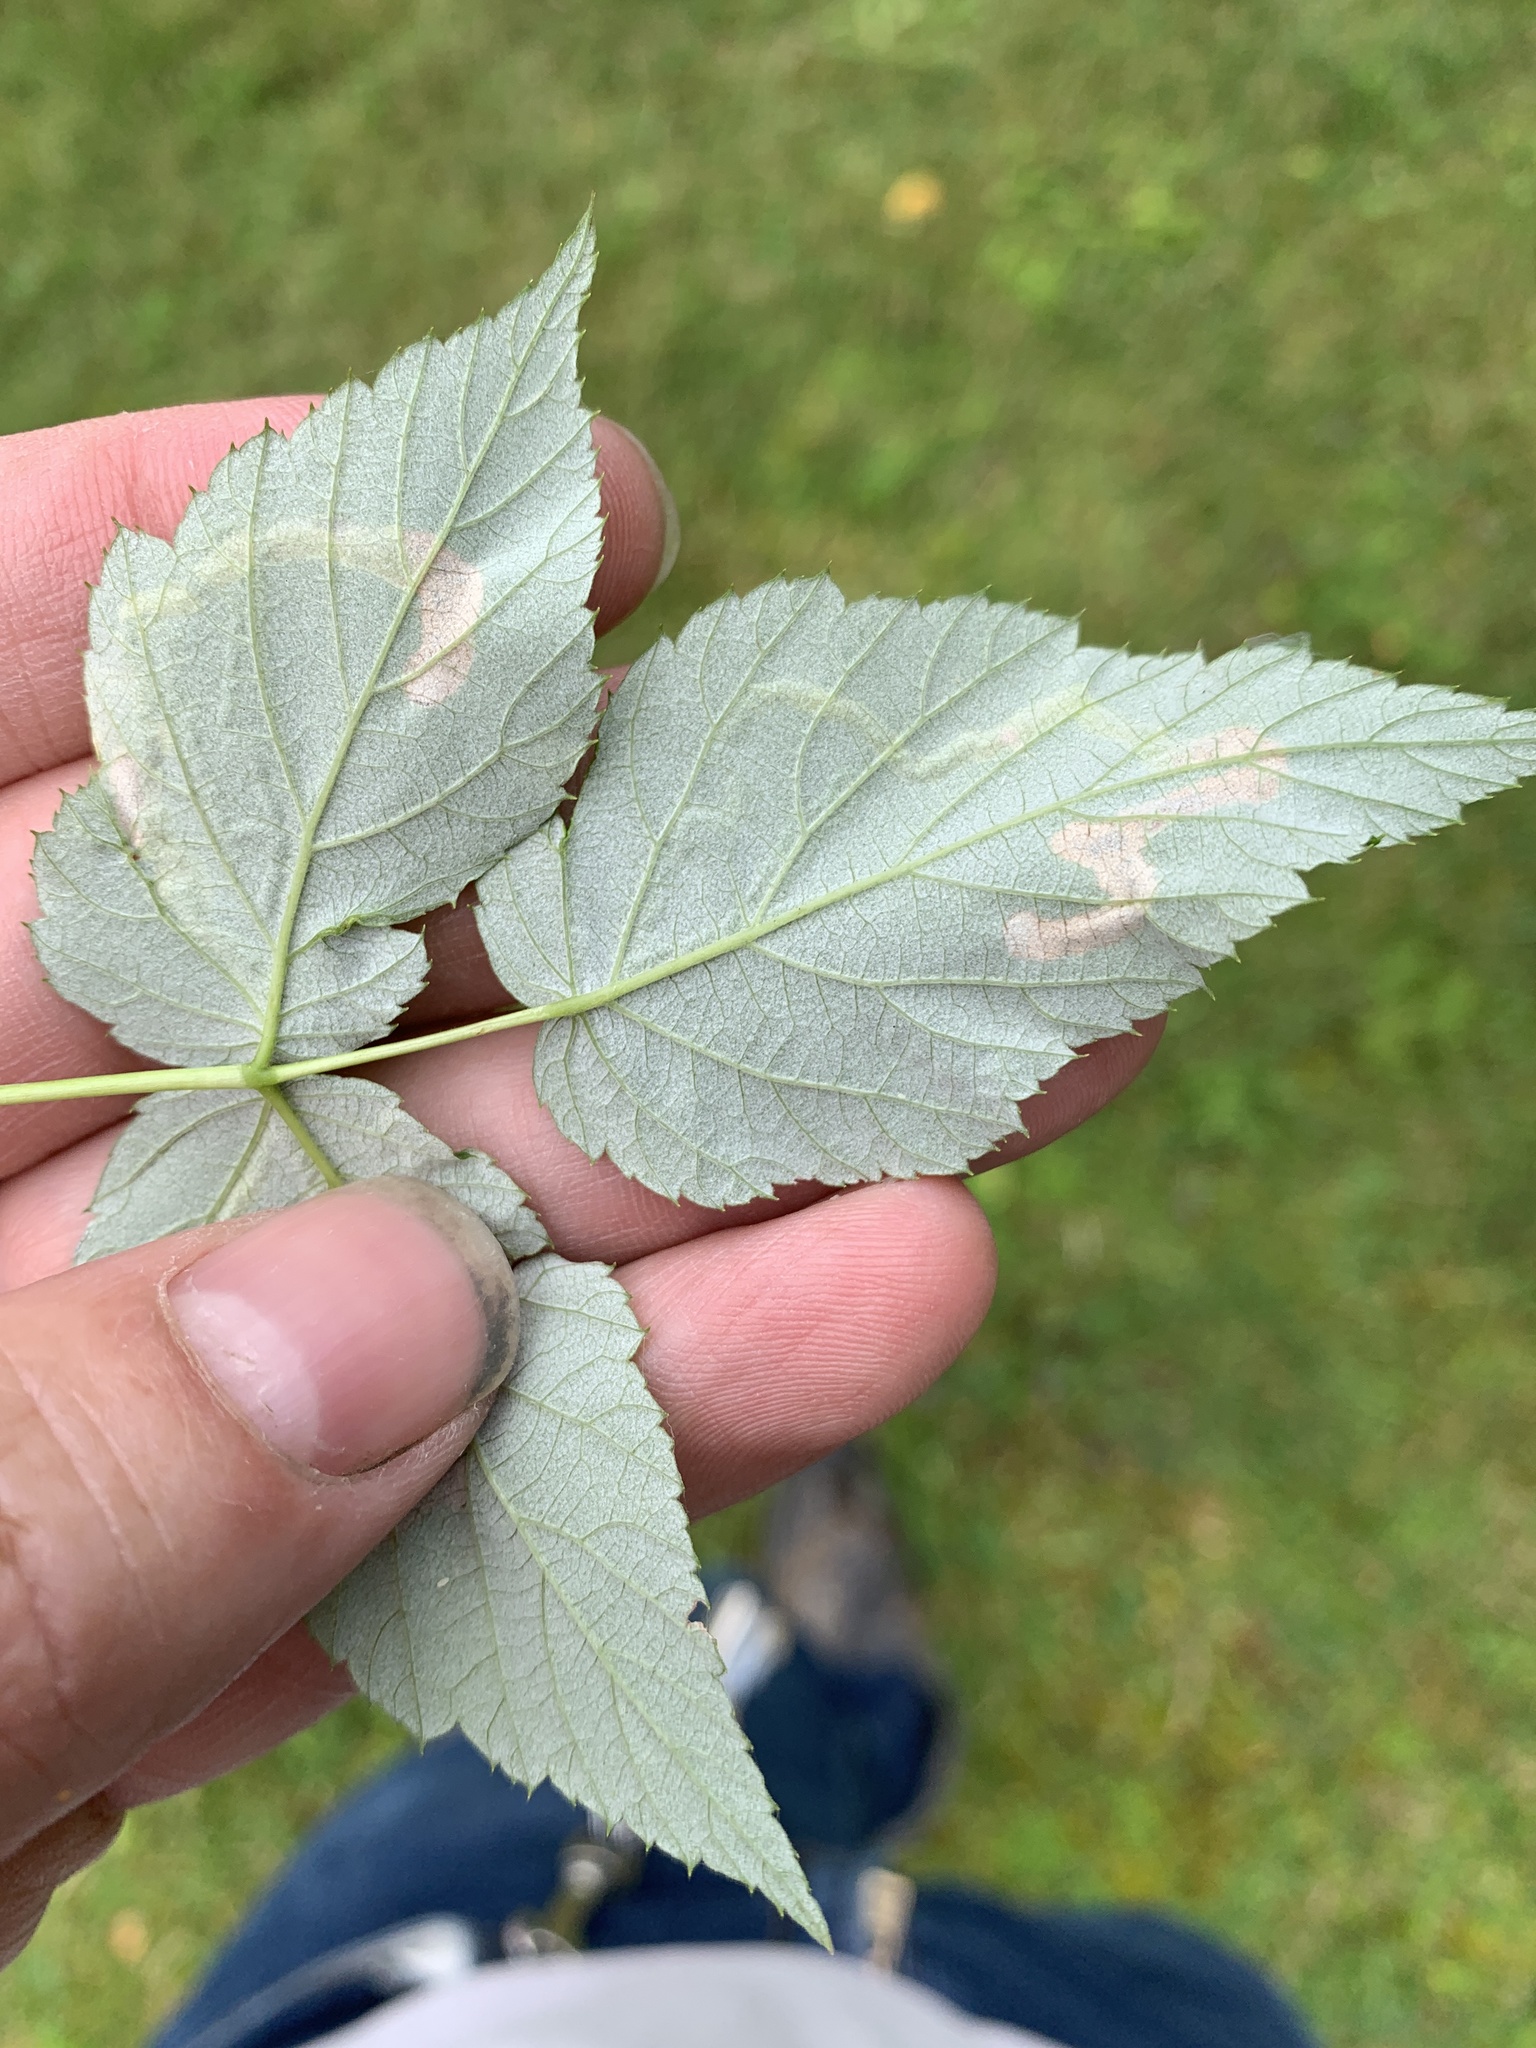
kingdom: Animalia
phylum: Arthropoda
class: Insecta
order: Diptera
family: Agromyzidae
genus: Agromyza
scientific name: Agromyza vockerothi
